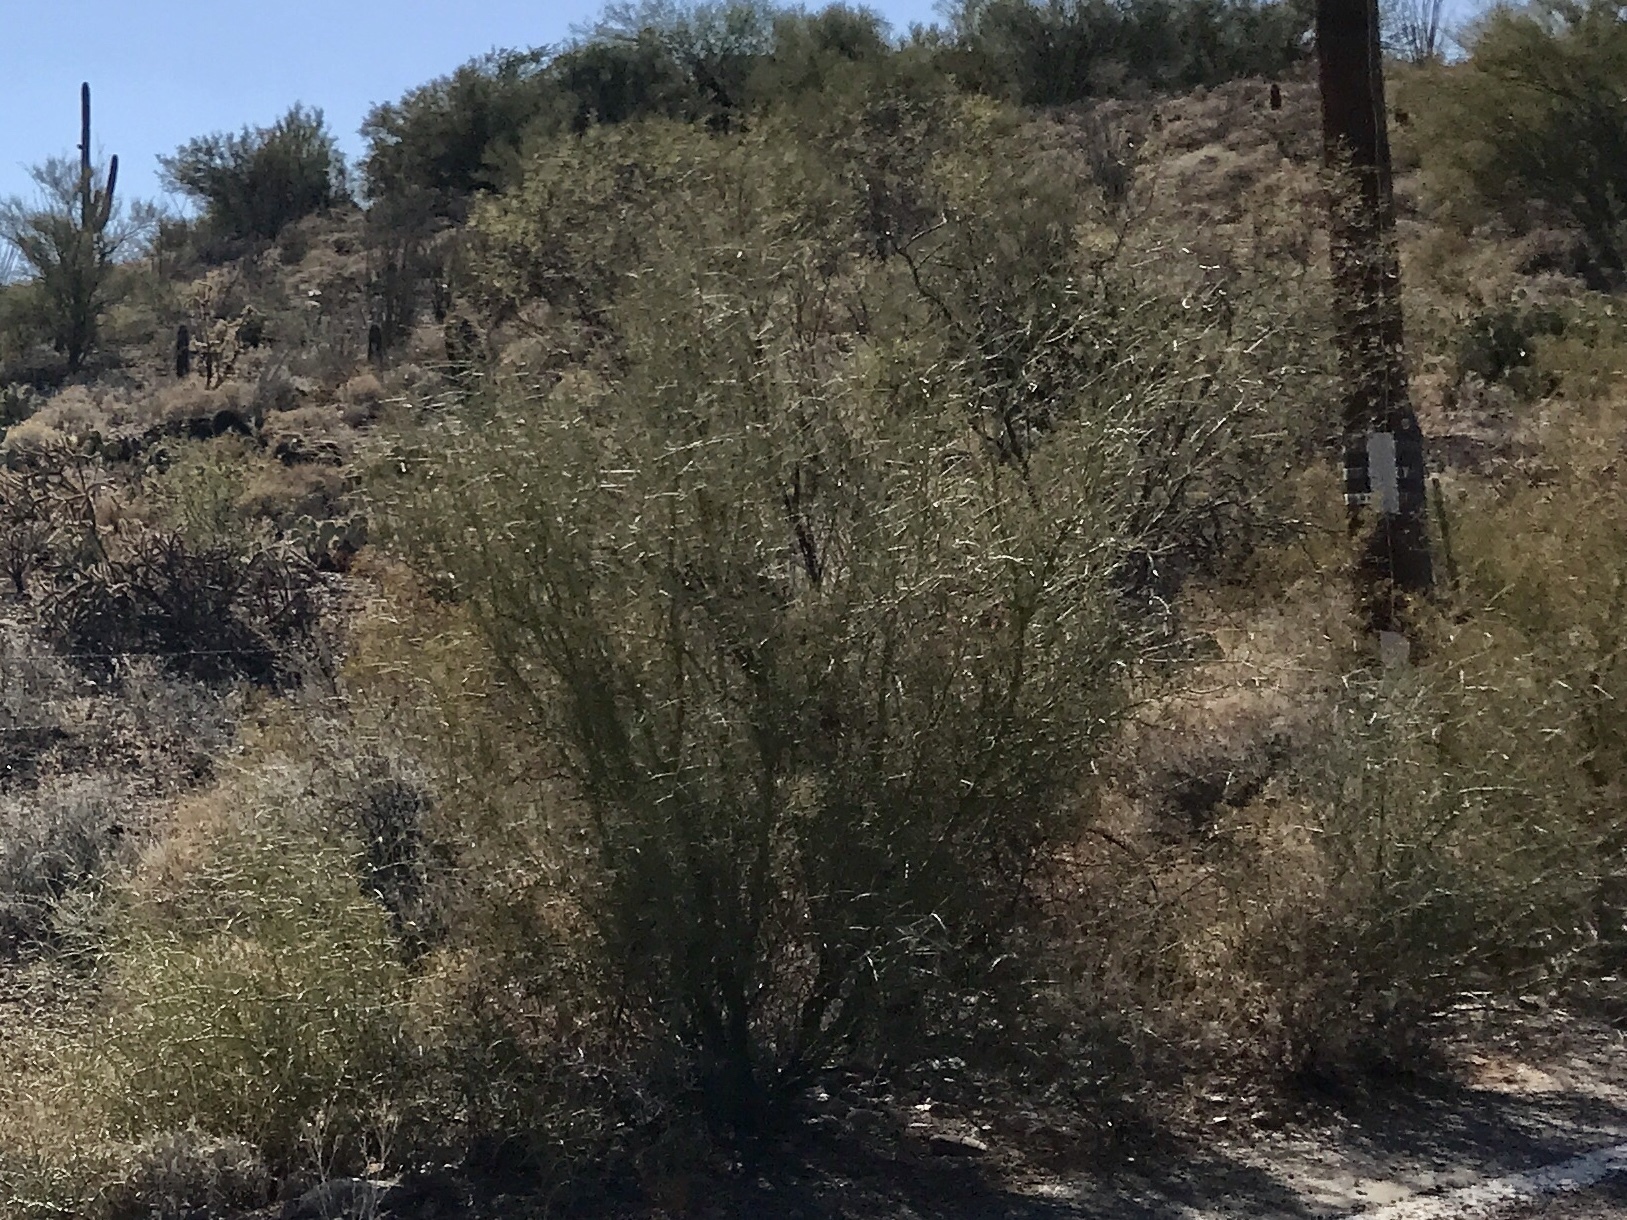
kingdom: Plantae
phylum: Tracheophyta
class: Magnoliopsida
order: Fabales
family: Fabaceae
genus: Parkinsonia
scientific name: Parkinsonia aculeata
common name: Jerusalem thorn
